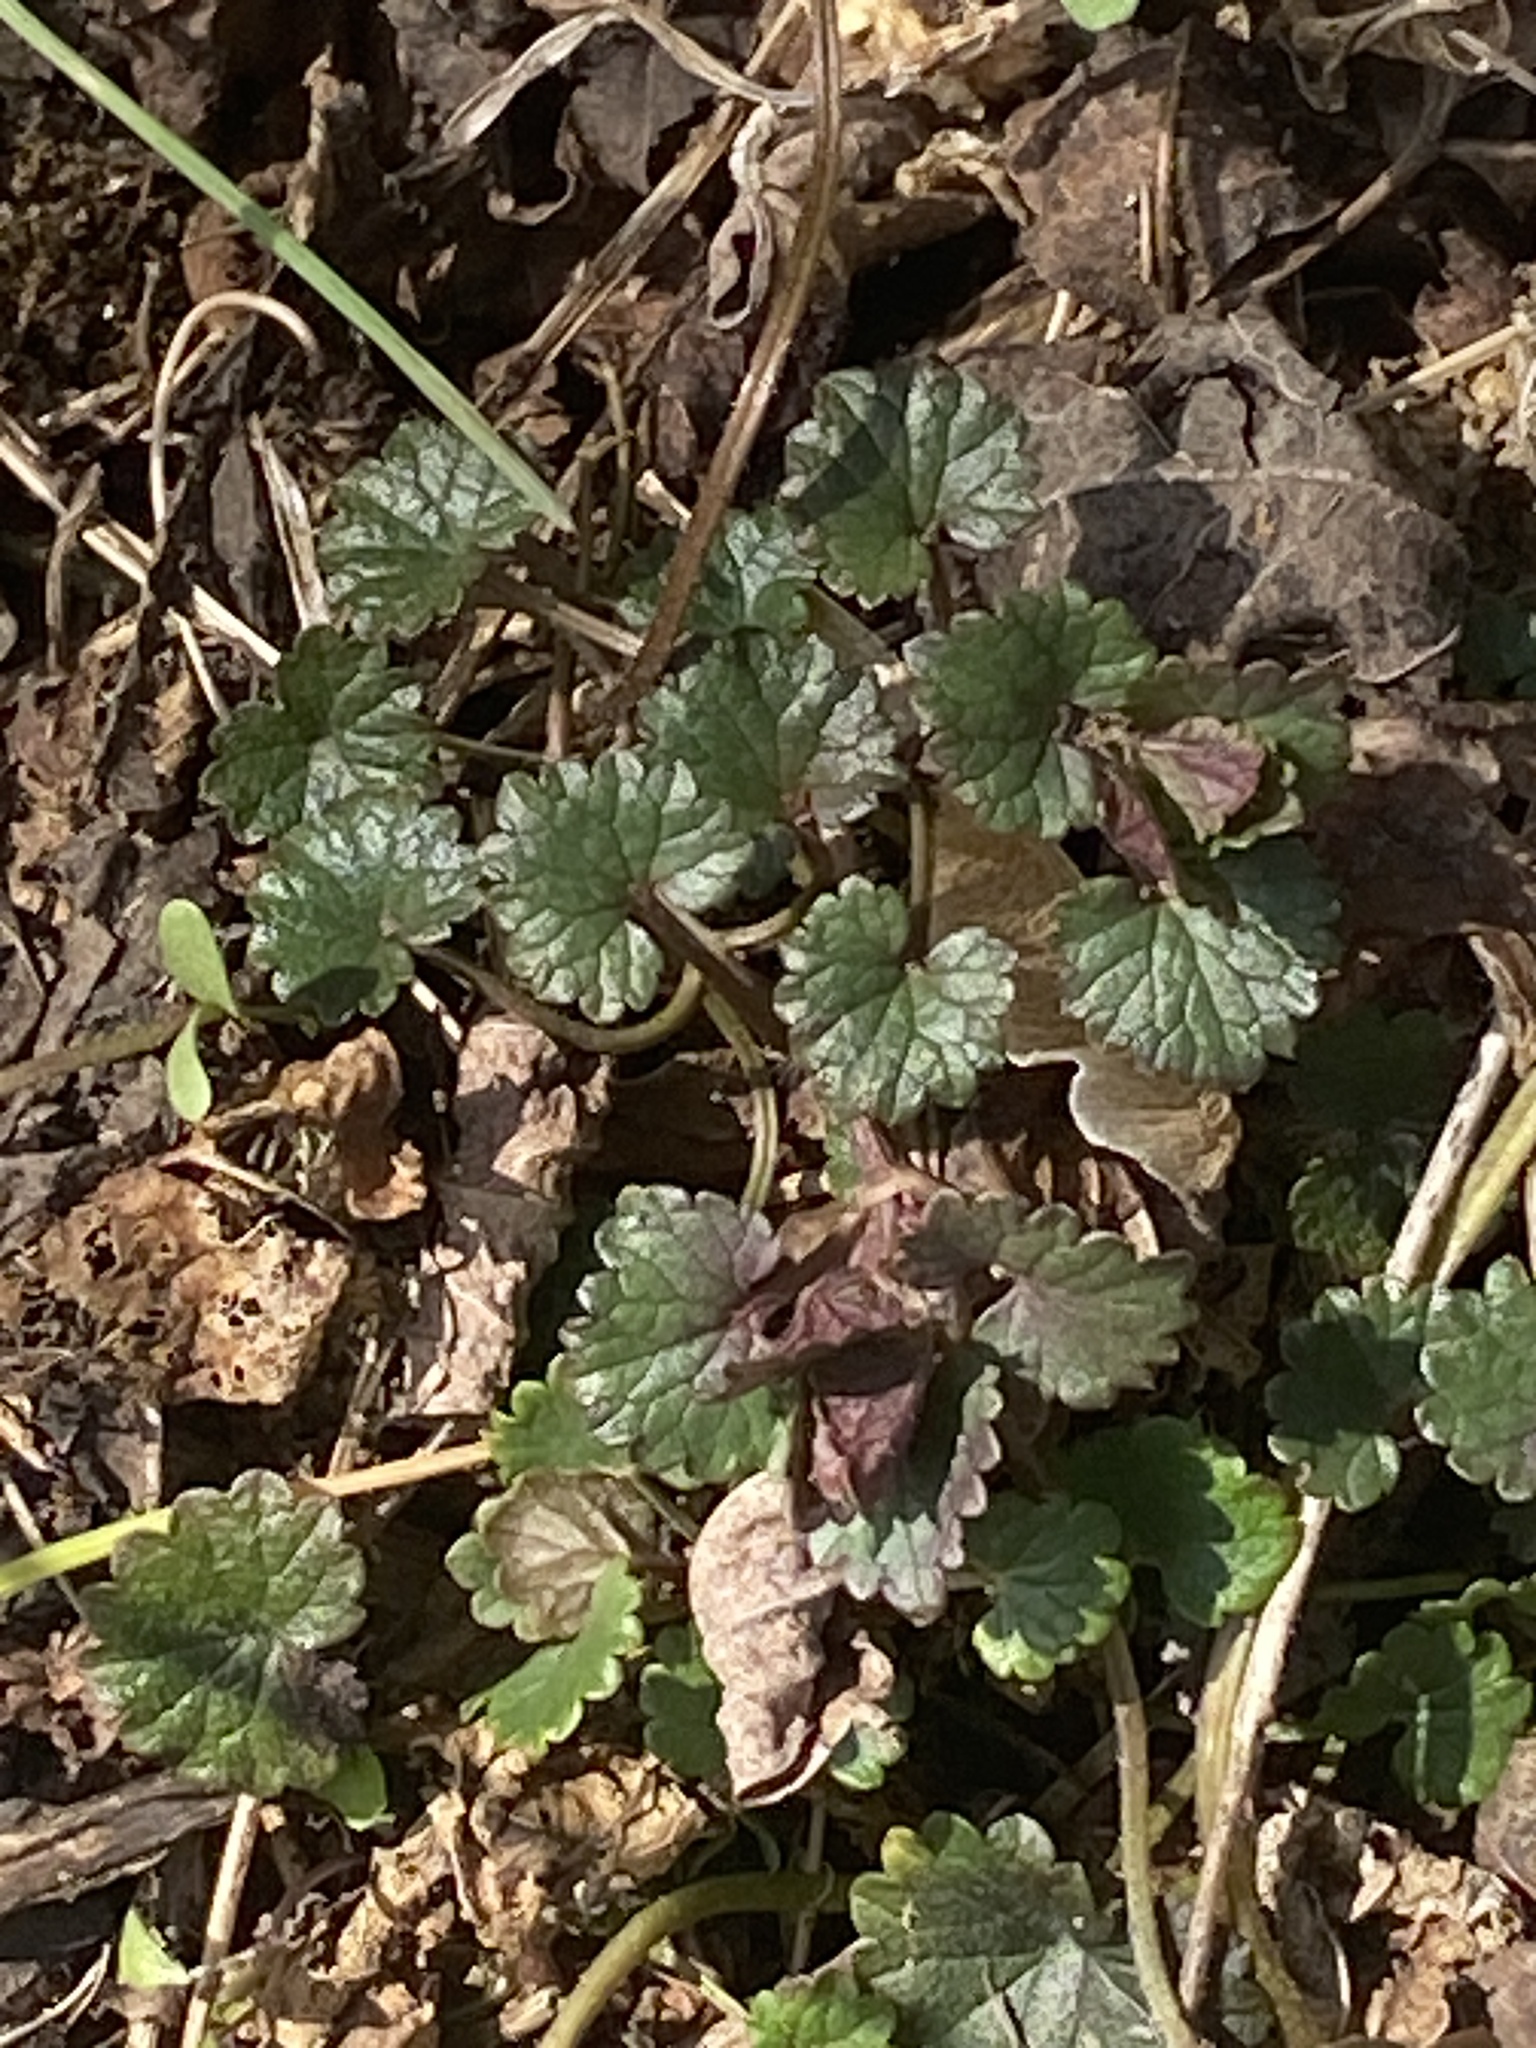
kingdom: Plantae
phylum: Tracheophyta
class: Magnoliopsida
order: Lamiales
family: Lamiaceae
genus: Glechoma
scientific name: Glechoma hederacea
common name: Ground ivy
